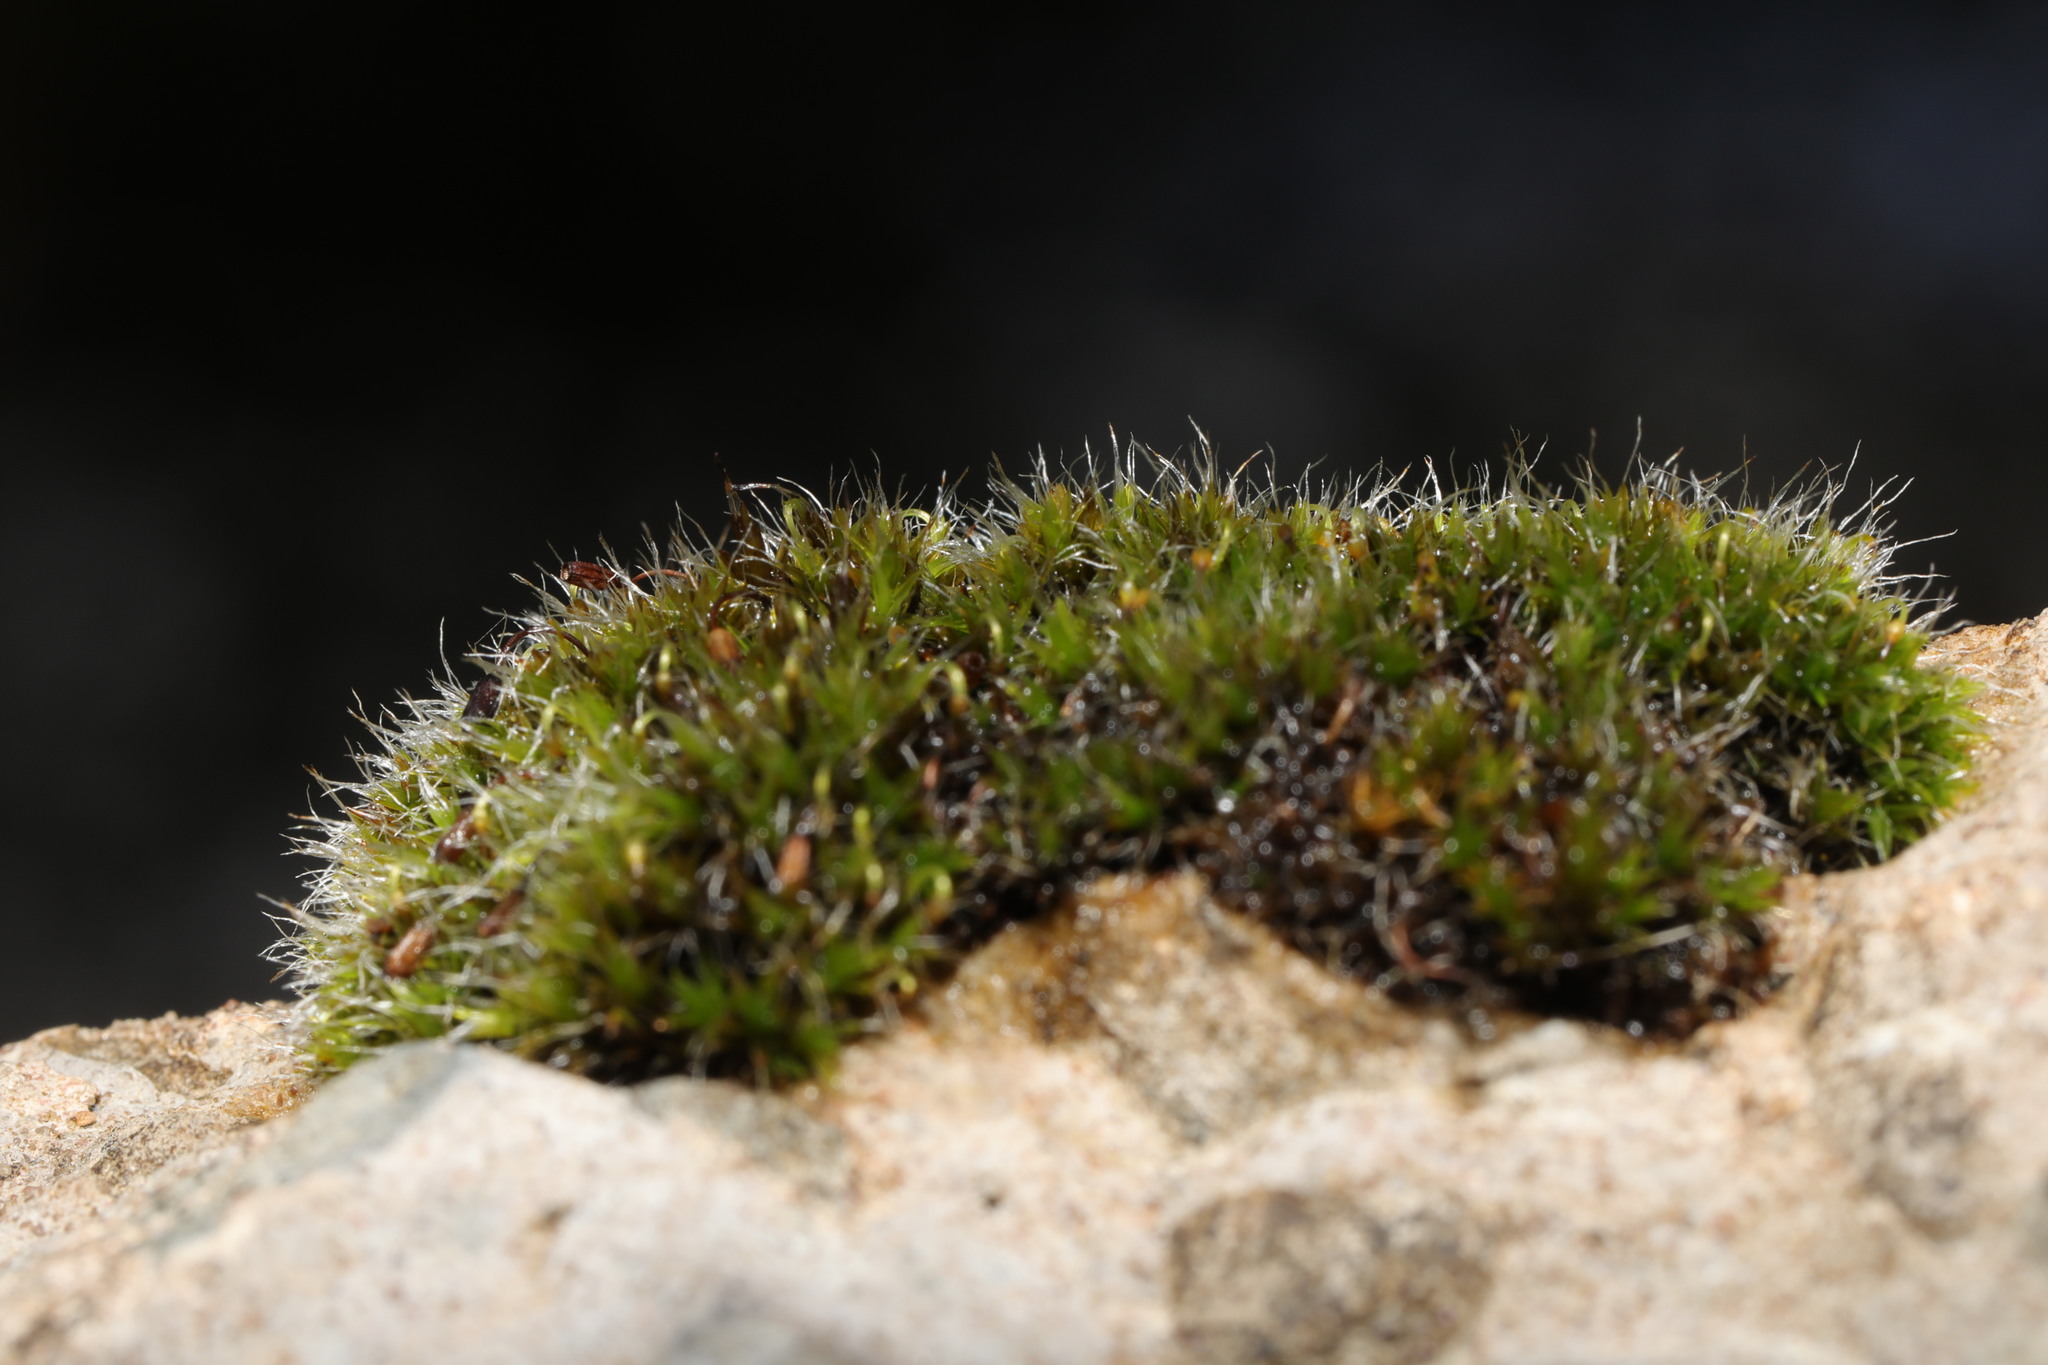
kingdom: Plantae
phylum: Bryophyta
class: Bryopsida
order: Grimmiales
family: Grimmiaceae
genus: Grimmia
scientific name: Grimmia pulvinata
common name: Grey-cushioned grimmia
